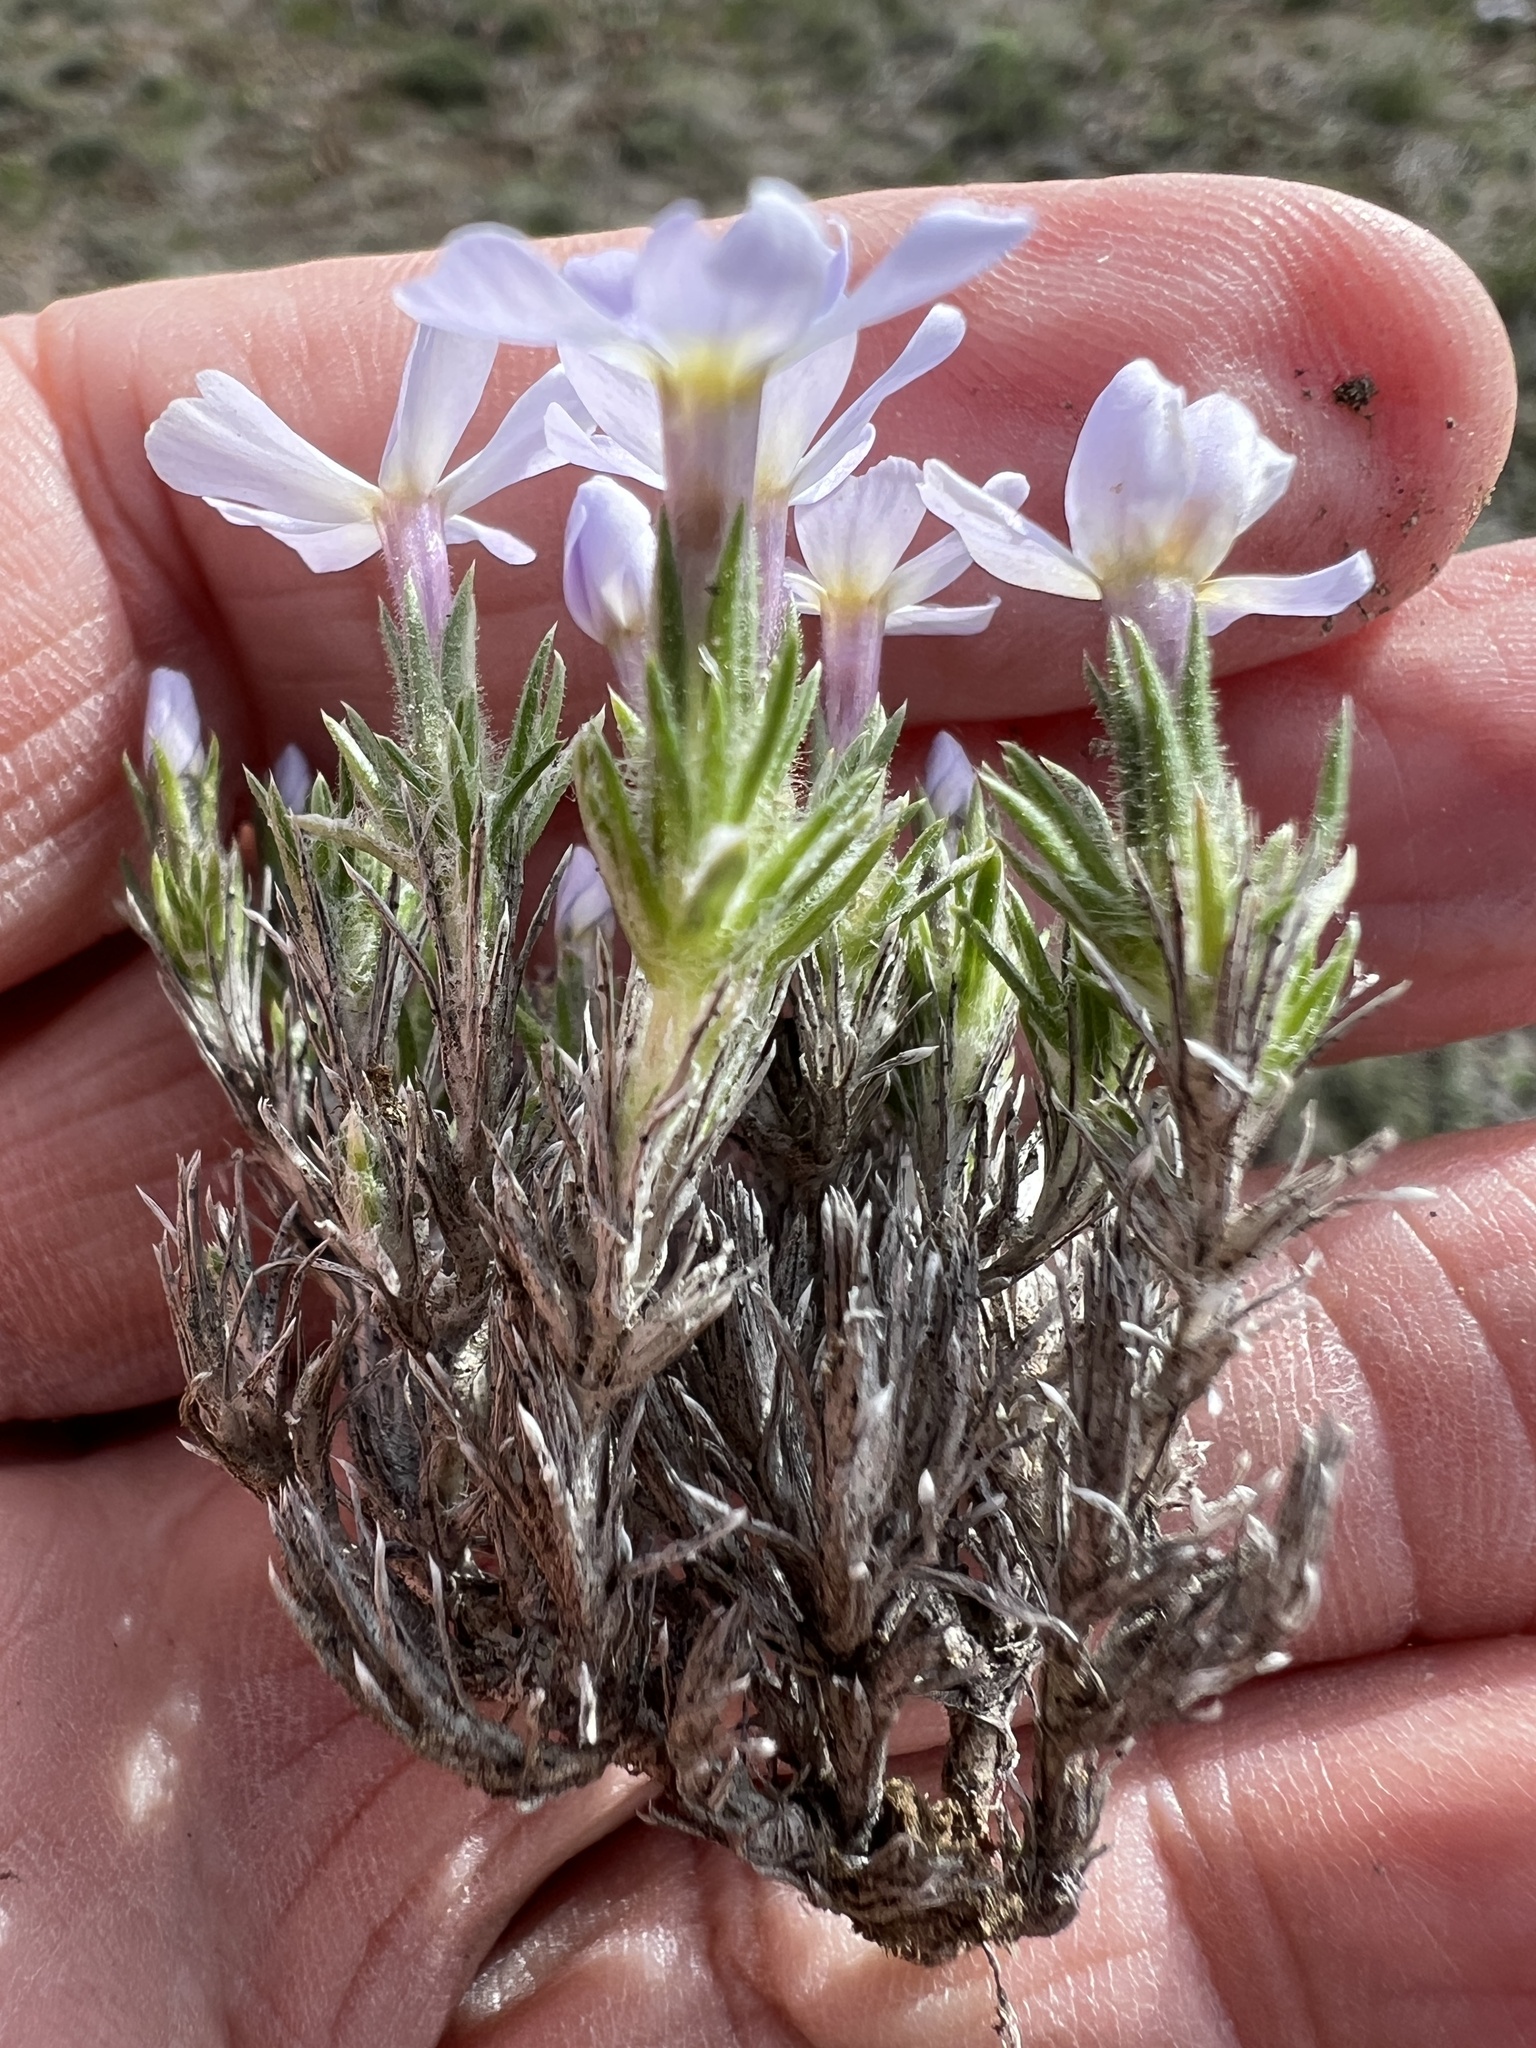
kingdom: Plantae
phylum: Tracheophyta
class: Magnoliopsida
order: Ericales
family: Polemoniaceae
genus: Phlox
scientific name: Phlox douglasii
